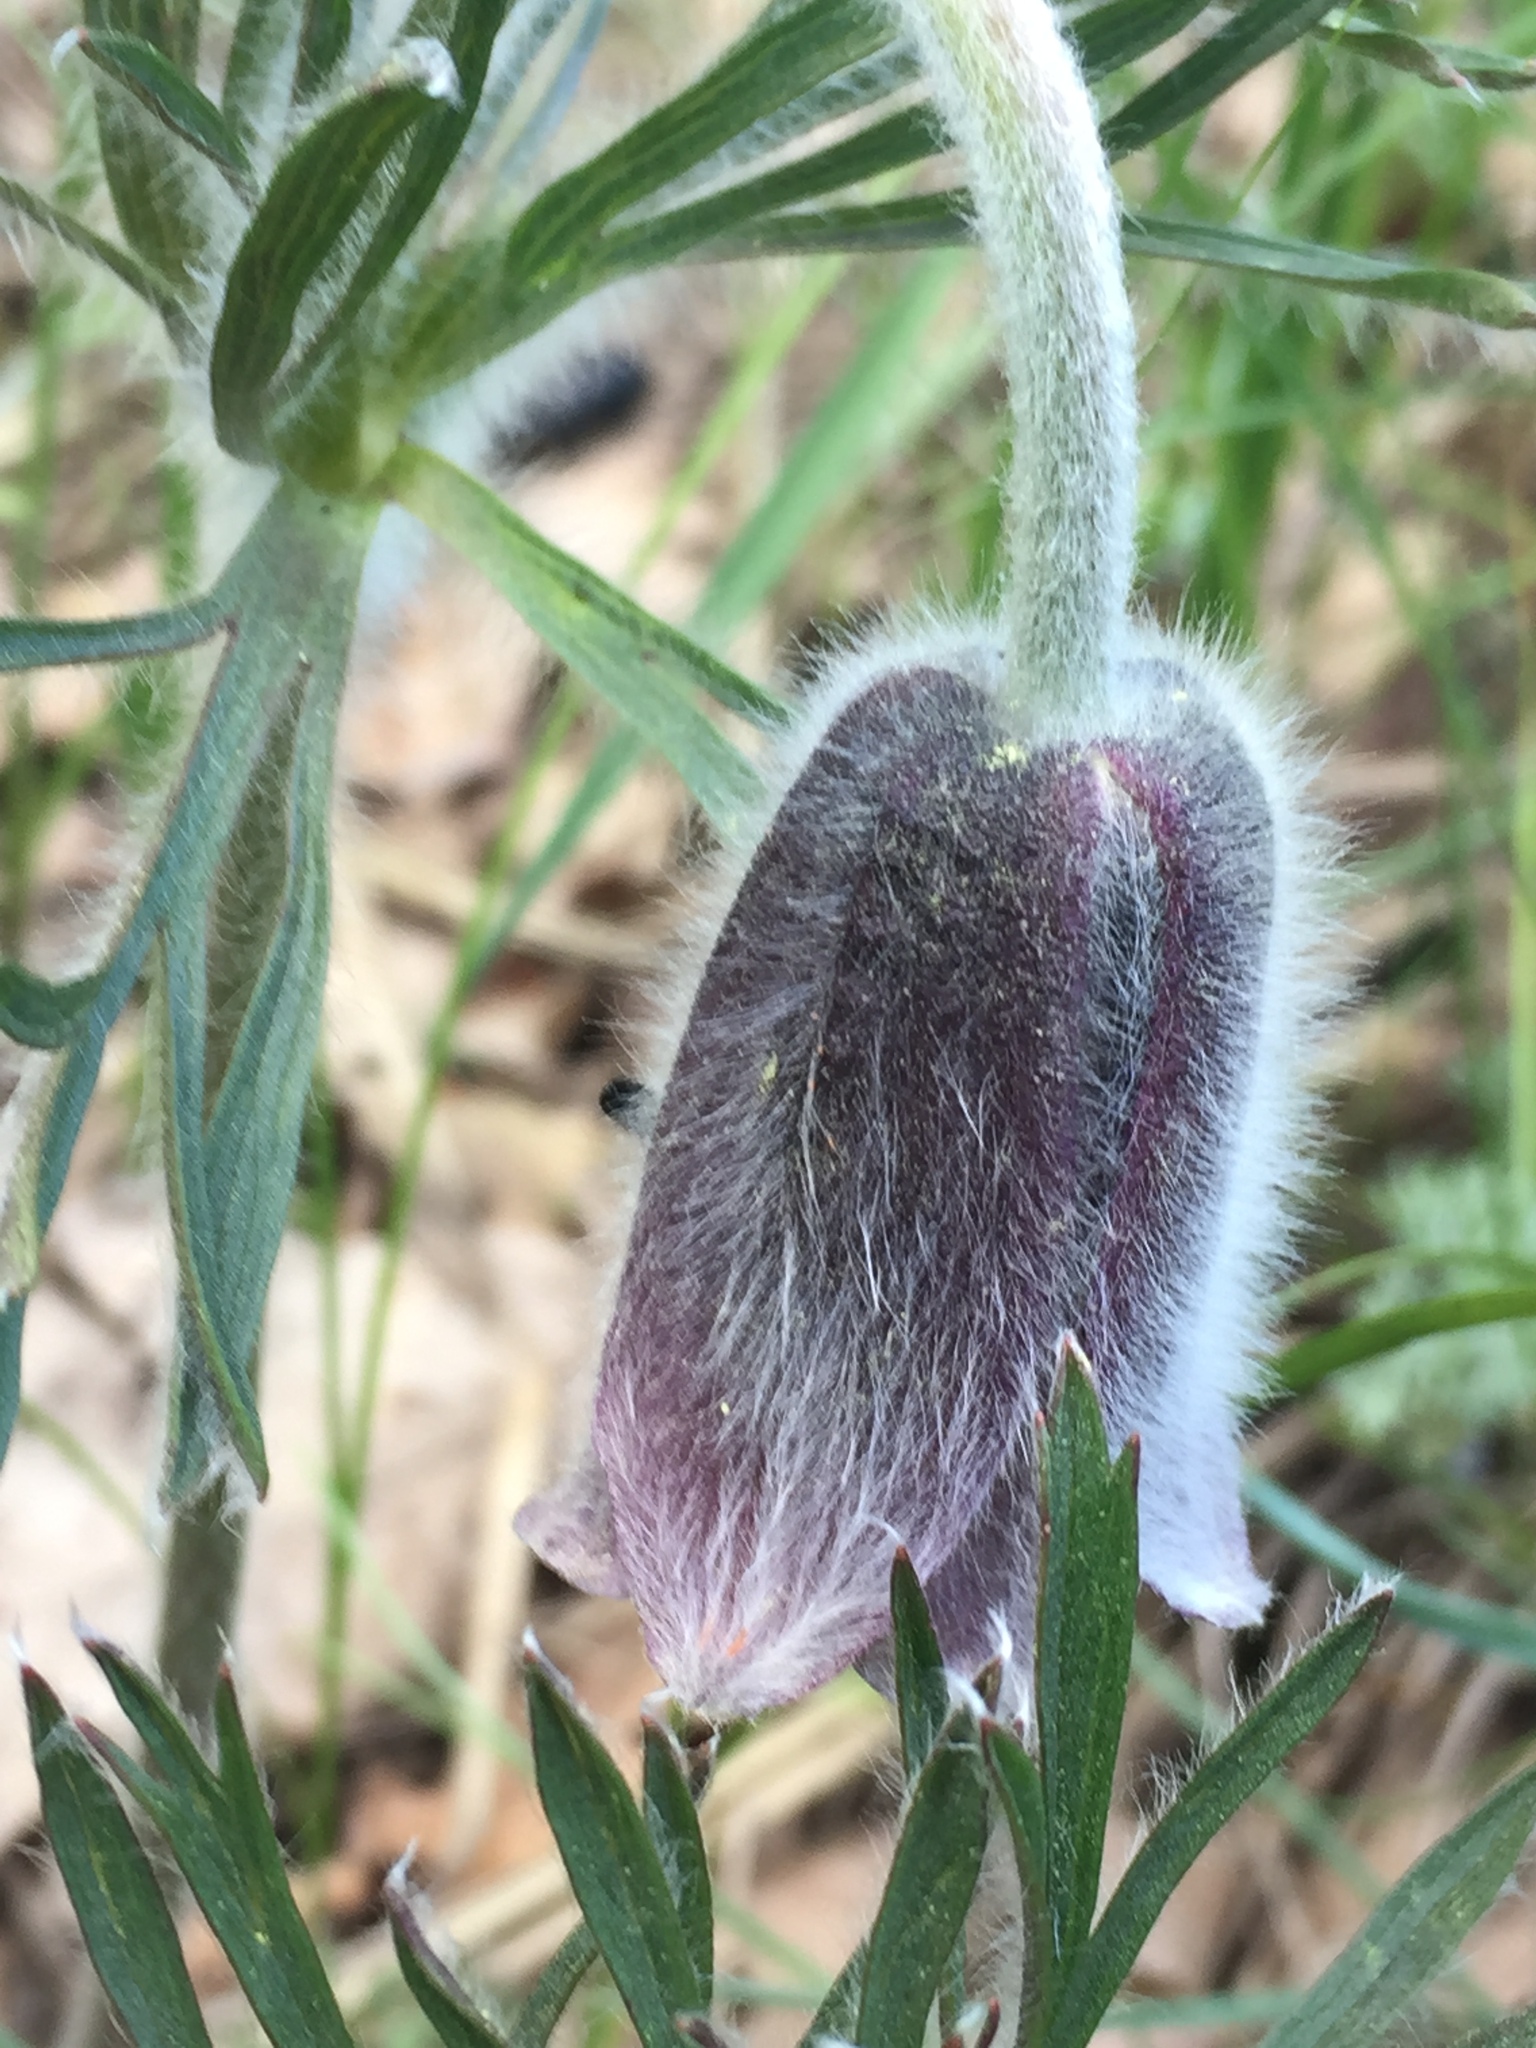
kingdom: Plantae
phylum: Tracheophyta
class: Magnoliopsida
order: Ranunculales
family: Ranunculaceae
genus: Pulsatilla
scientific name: Pulsatilla pratensis
